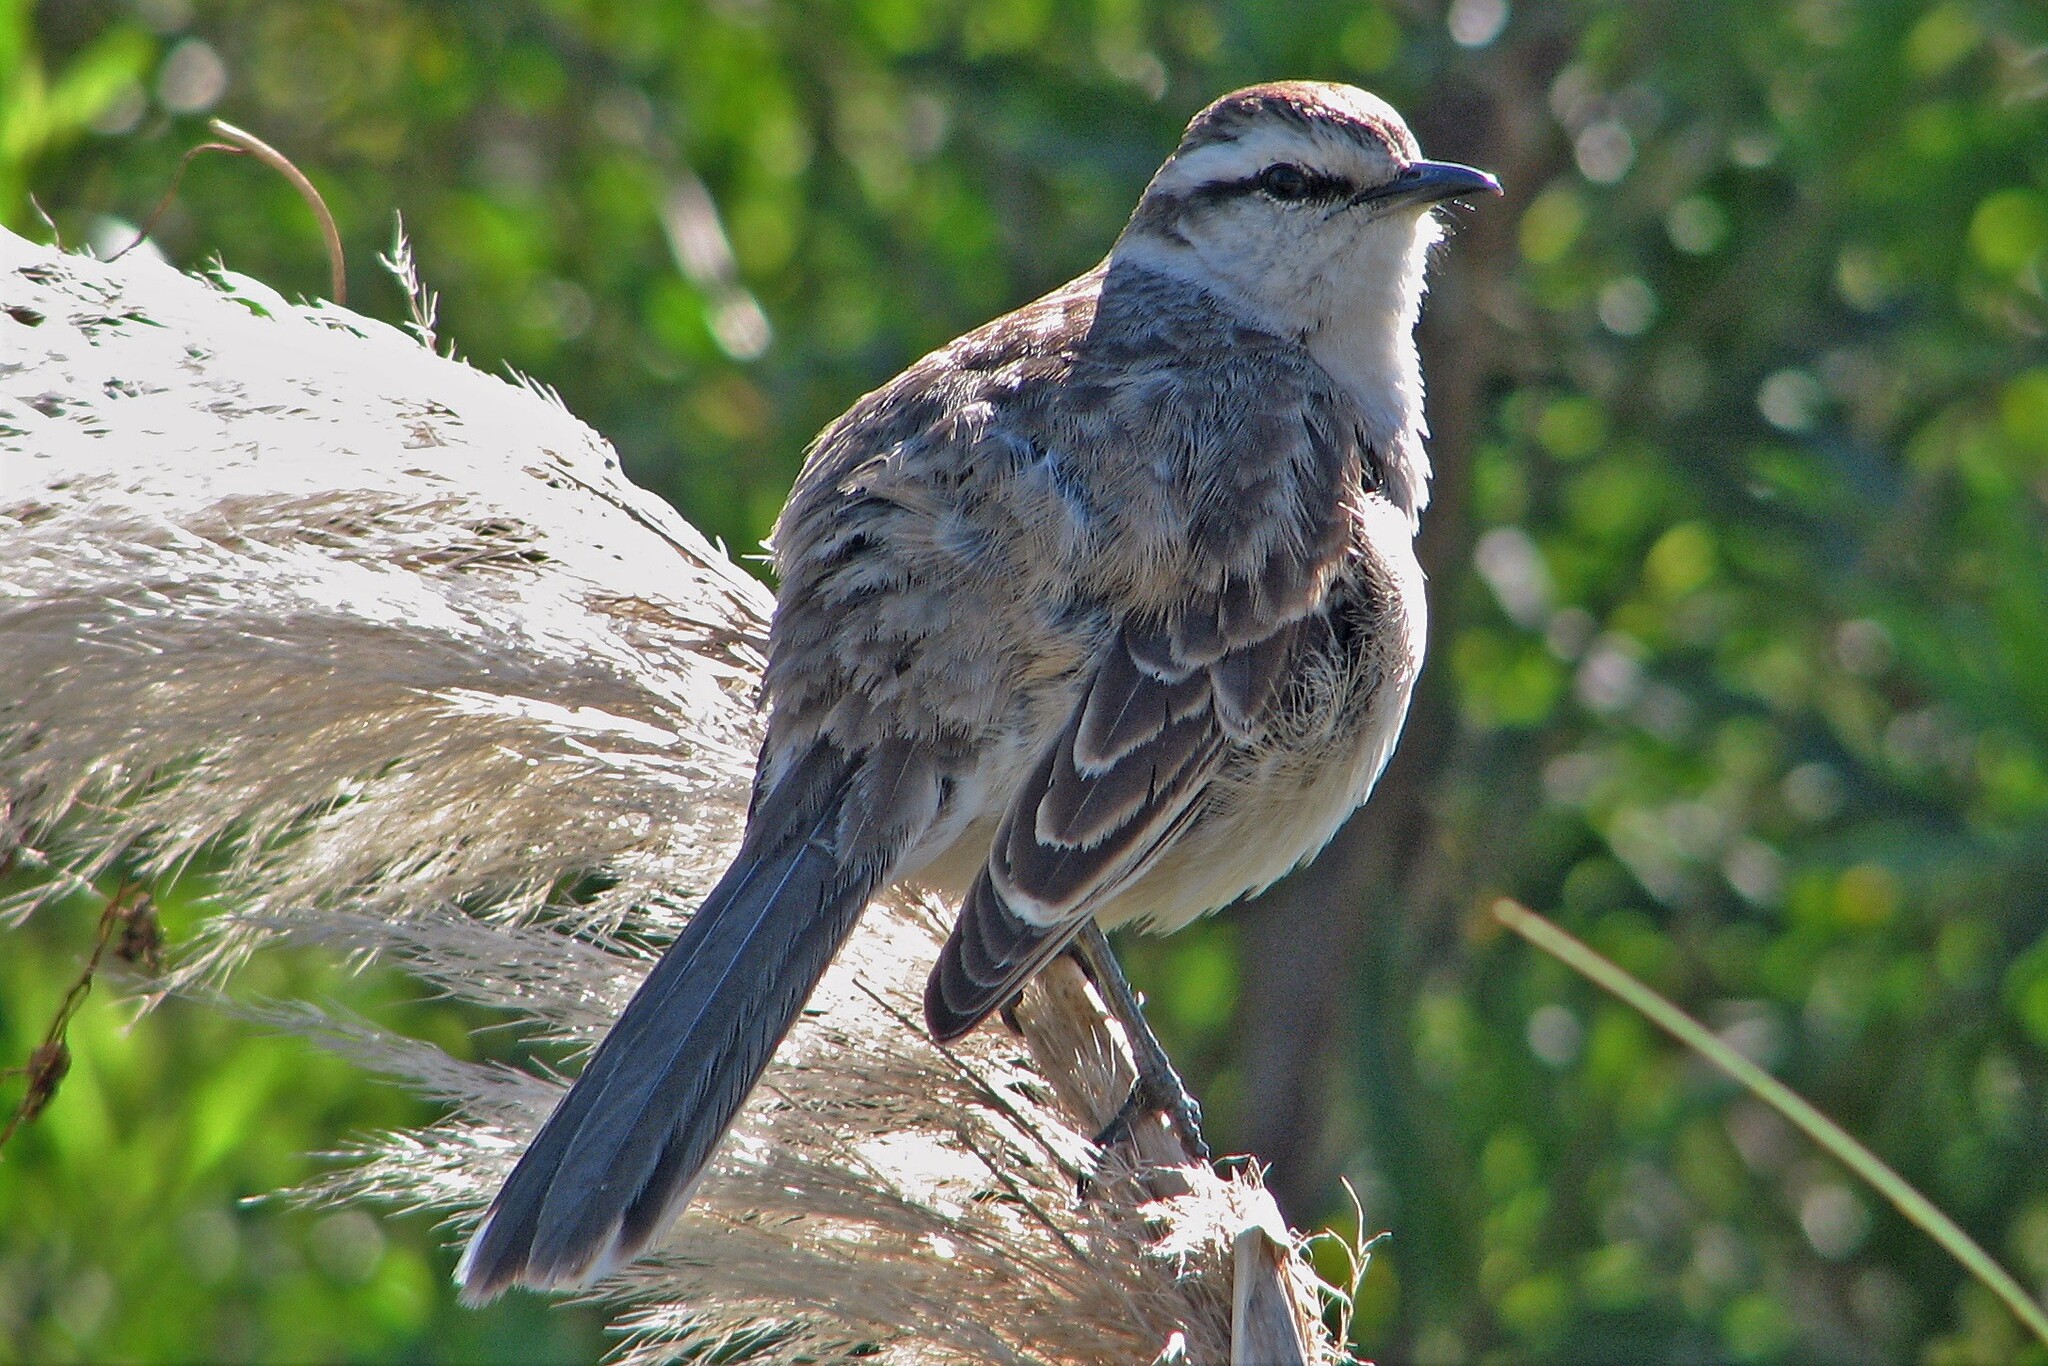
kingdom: Animalia
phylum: Chordata
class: Aves
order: Passeriformes
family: Mimidae
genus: Mimus
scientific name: Mimus saturninus
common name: Chalk-browed mockingbird
